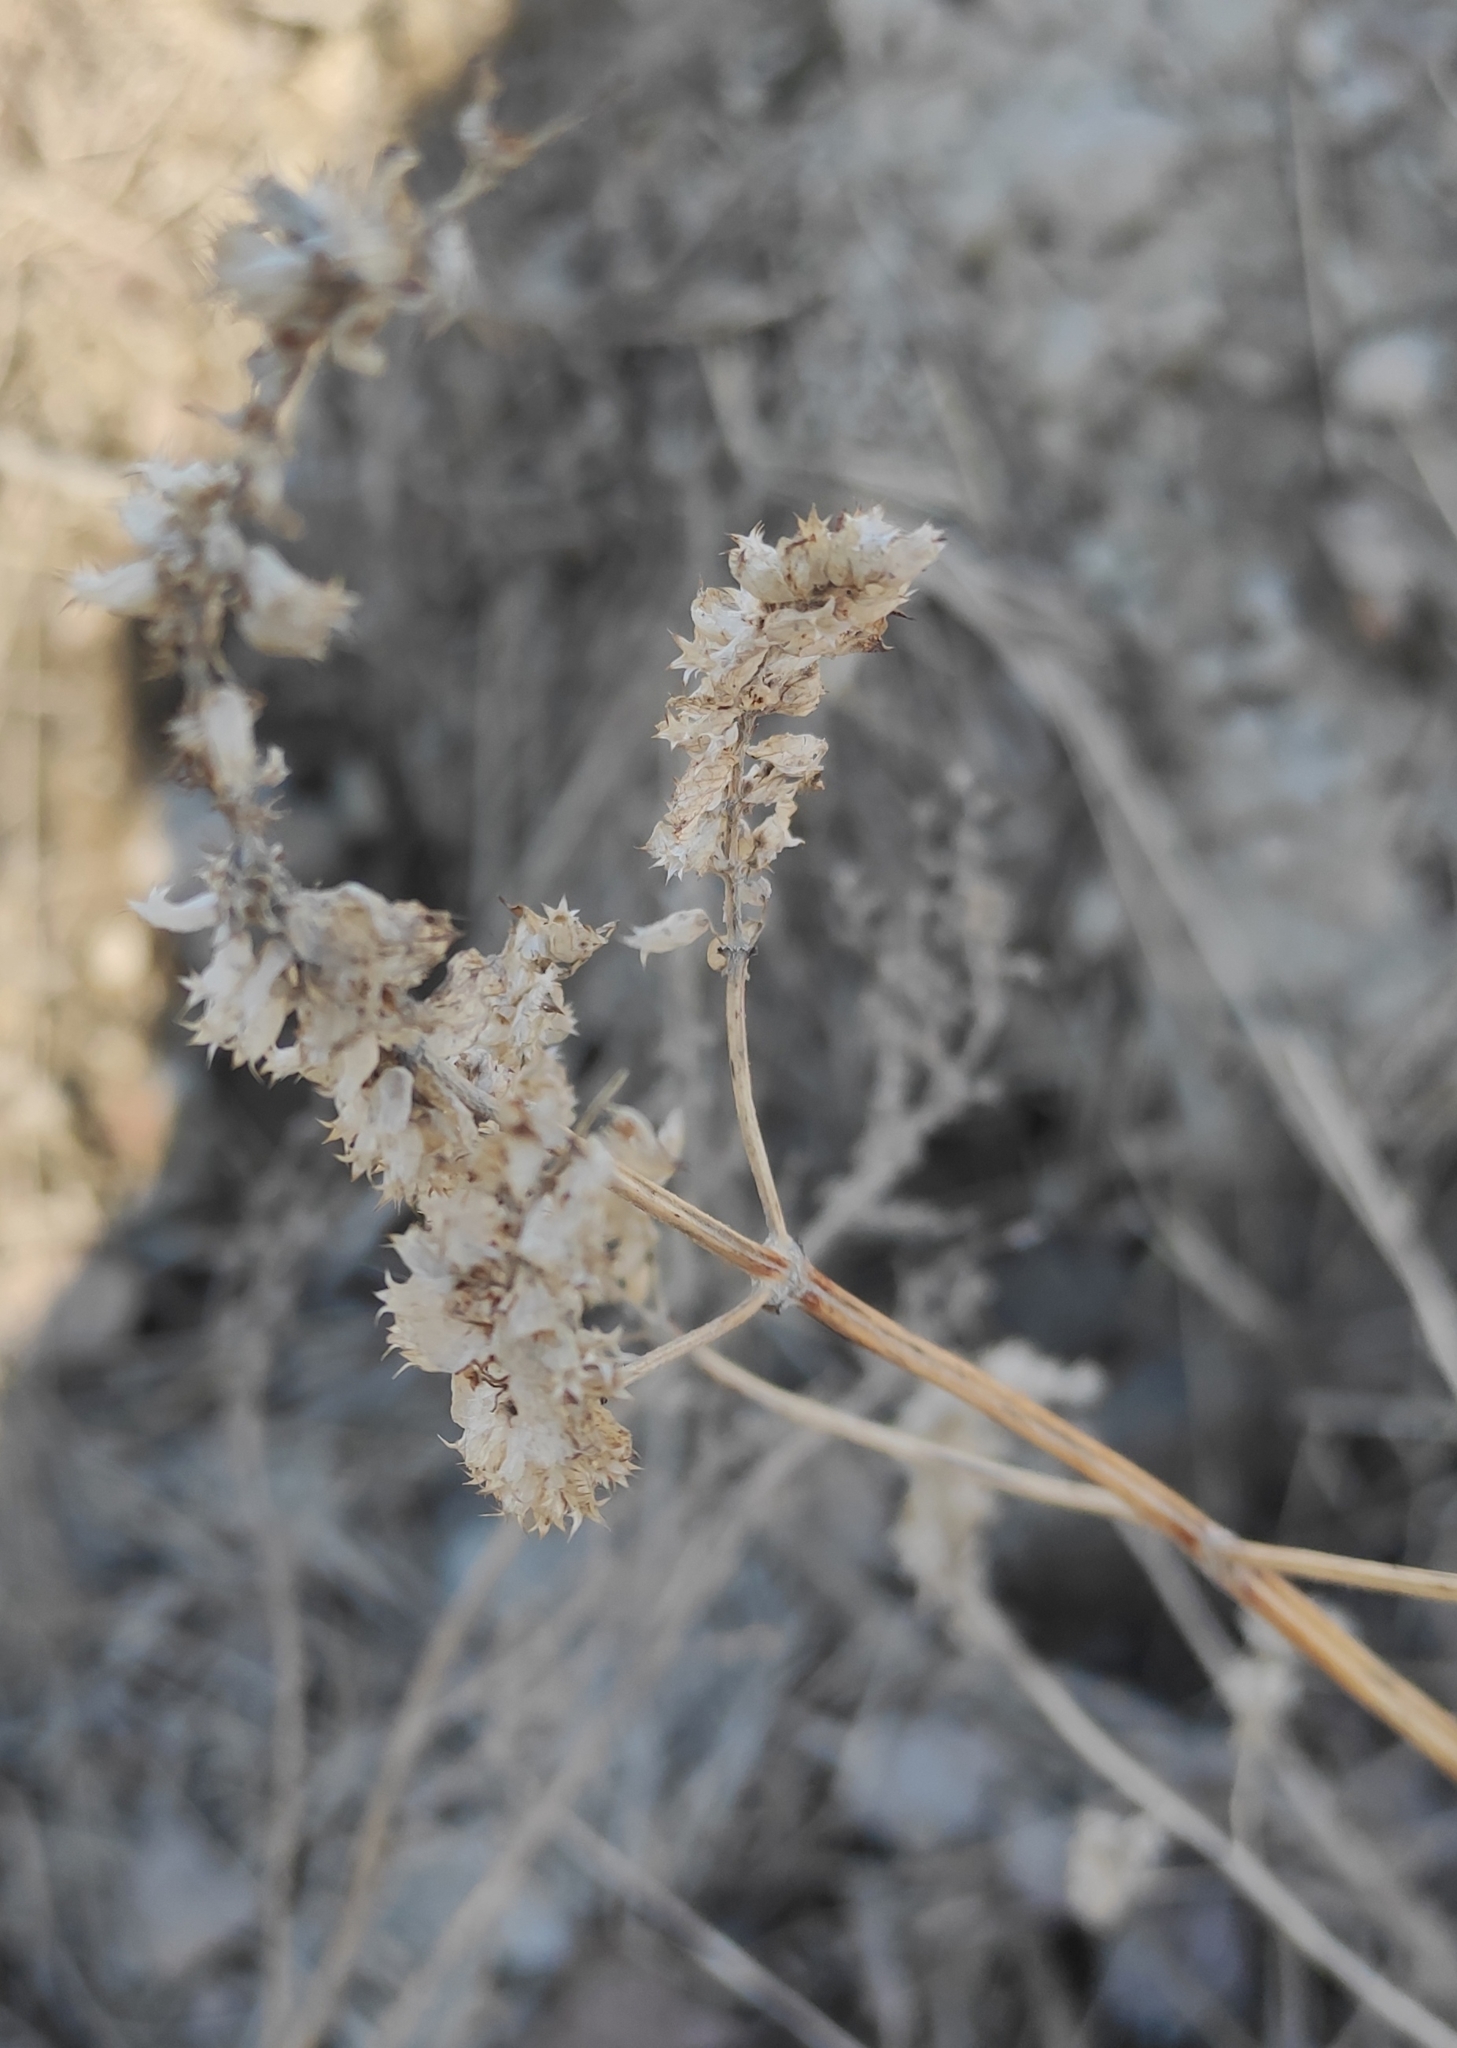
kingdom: Plantae
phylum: Tracheophyta
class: Magnoliopsida
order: Lamiales
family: Lamiaceae
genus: Elsholtzia
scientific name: Elsholtzia ciliata
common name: Ciliate elsholtzia
